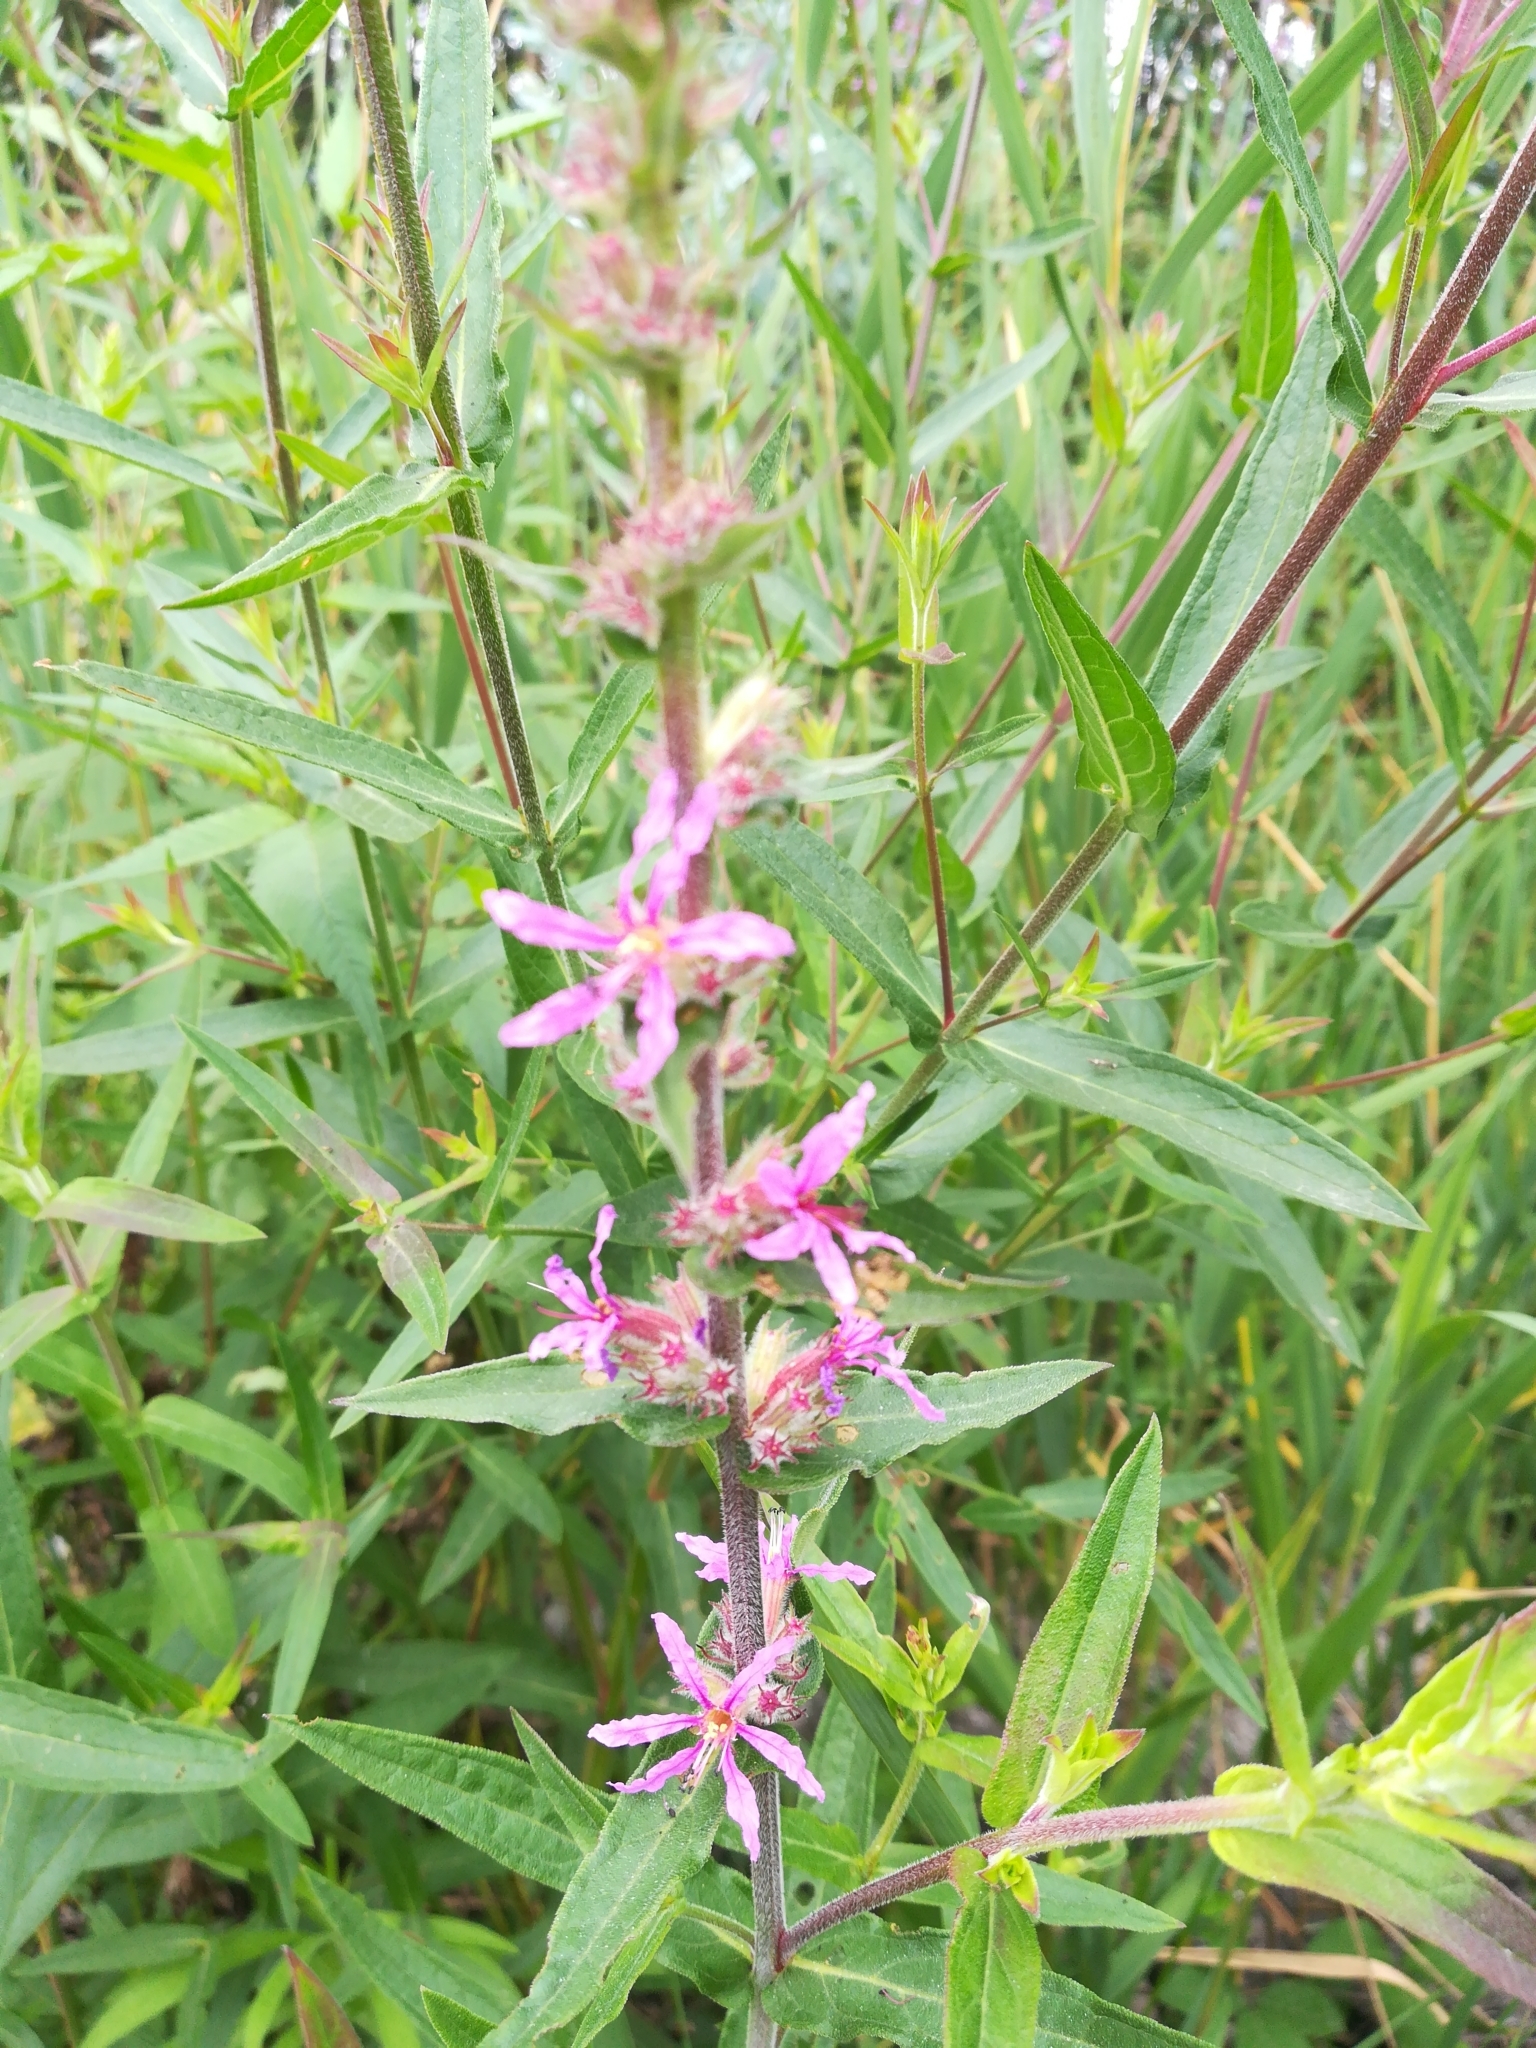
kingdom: Plantae
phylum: Tracheophyta
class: Magnoliopsida
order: Myrtales
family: Lythraceae
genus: Lythrum
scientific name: Lythrum salicaria
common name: Purple loosestrife
